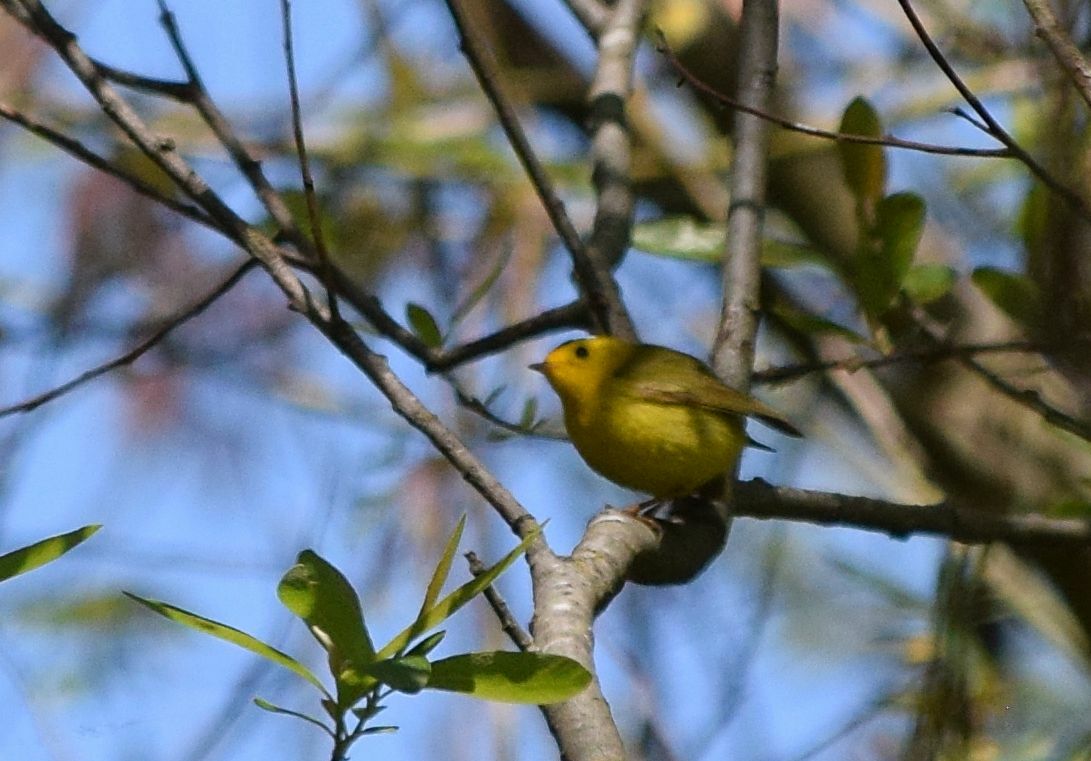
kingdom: Animalia
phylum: Chordata
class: Aves
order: Passeriformes
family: Parulidae
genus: Cardellina
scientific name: Cardellina pusilla
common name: Wilson's warbler
